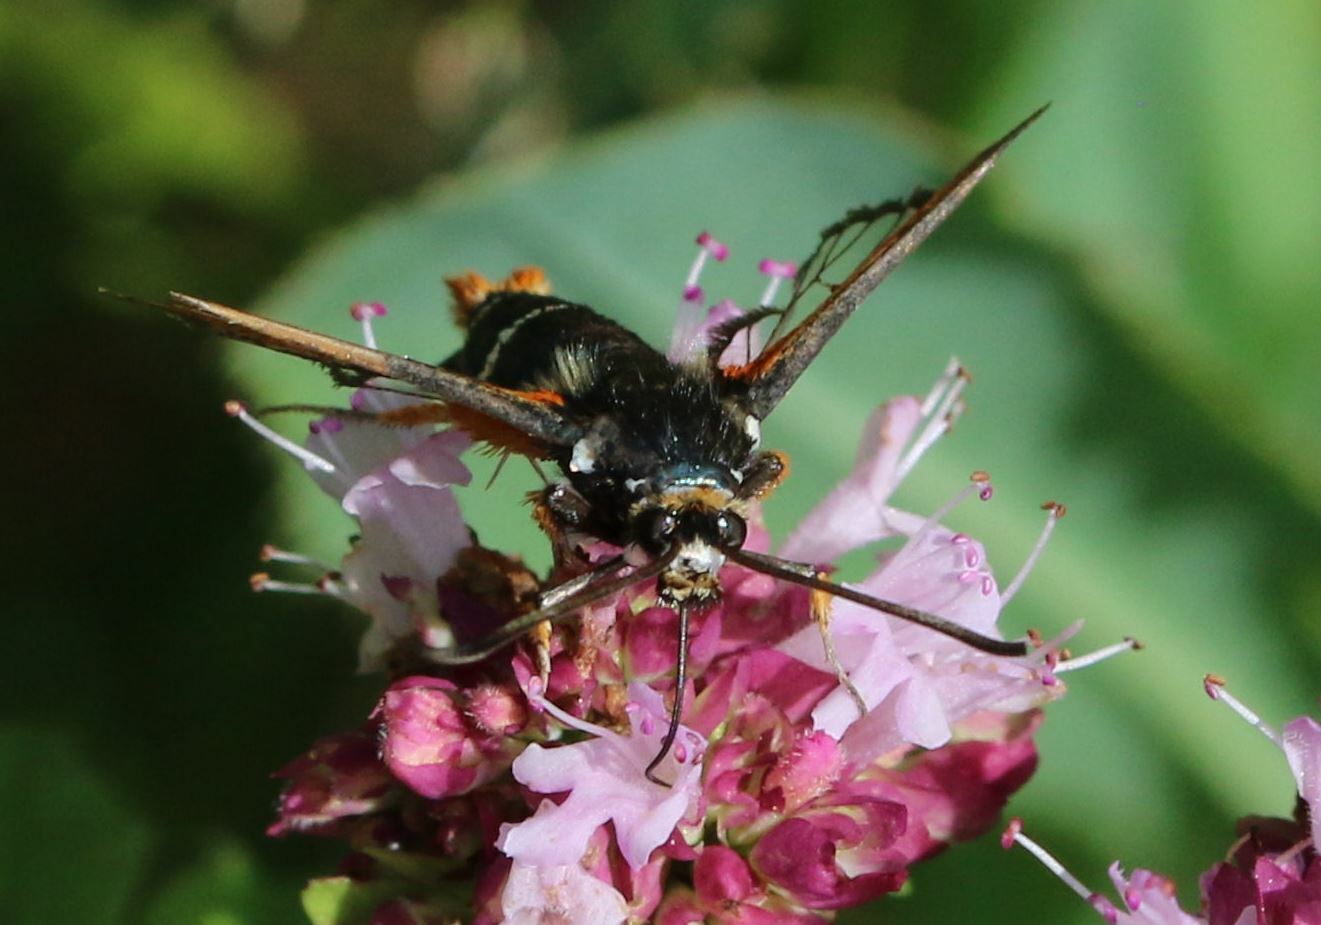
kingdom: Animalia
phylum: Arthropoda
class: Insecta
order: Lepidoptera
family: Sesiidae
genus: Pyropteron
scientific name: Pyropteron chrysidiforme
